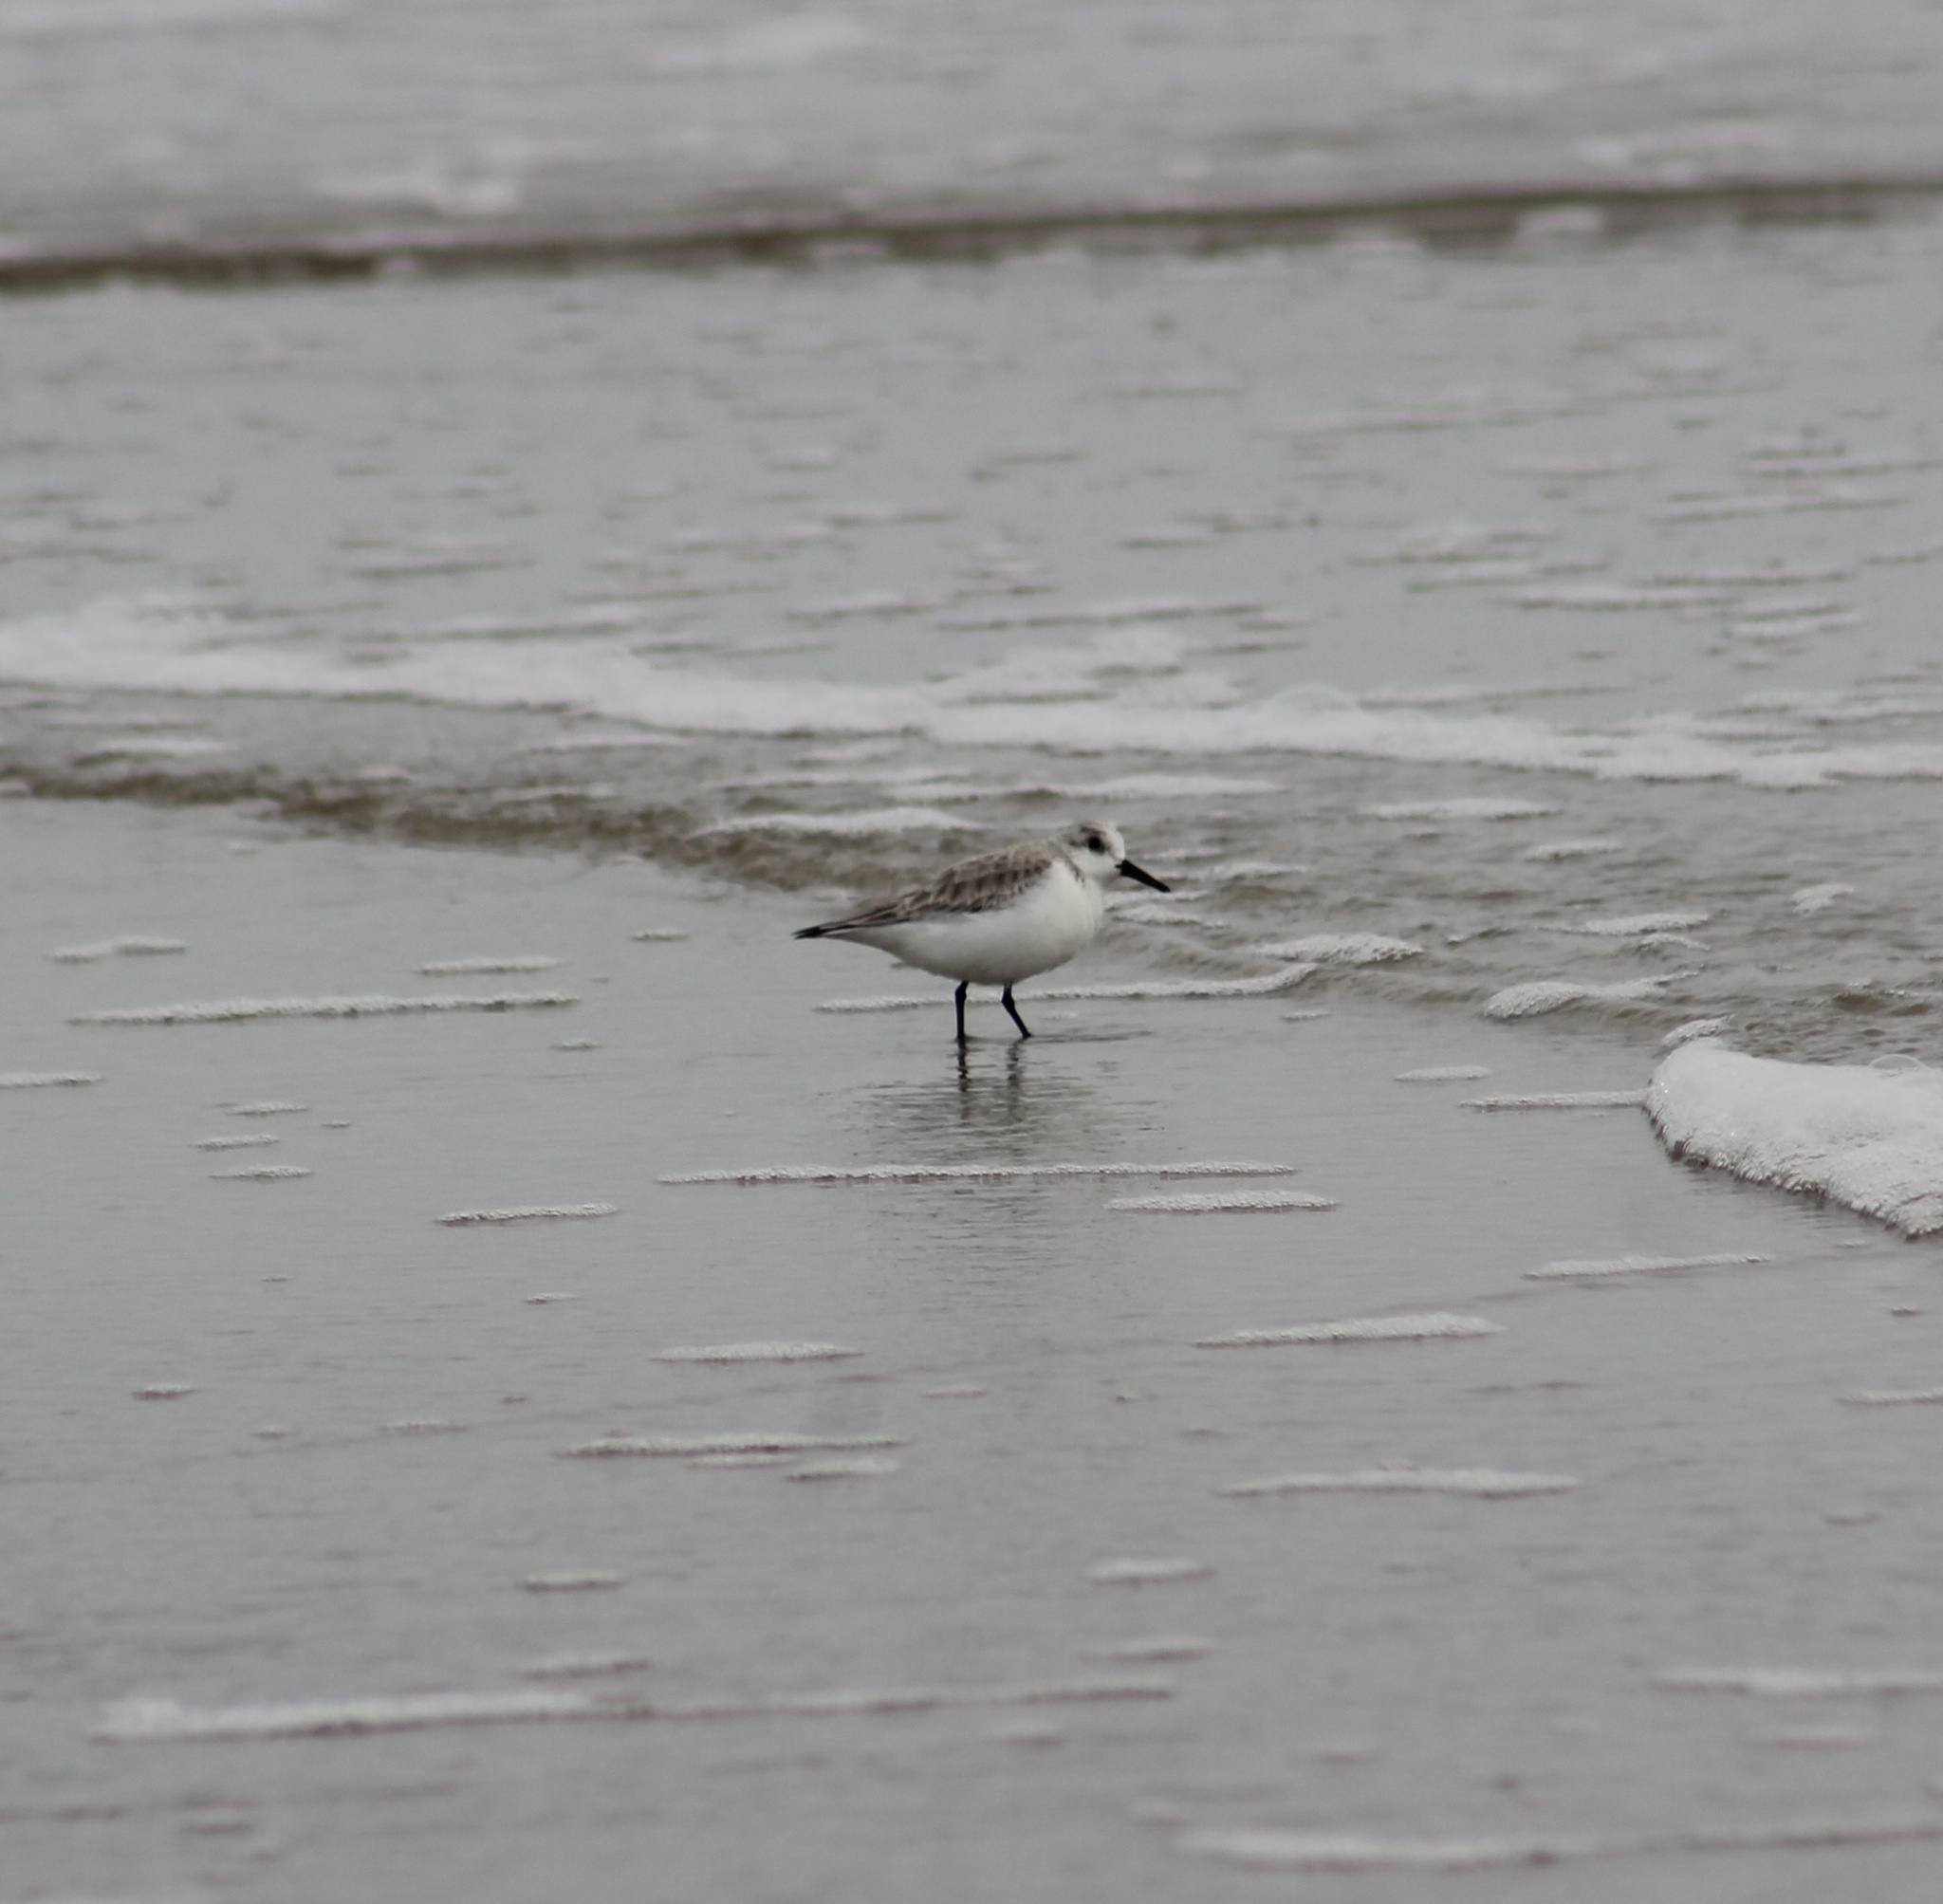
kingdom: Animalia
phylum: Chordata
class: Aves
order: Charadriiformes
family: Scolopacidae
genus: Calidris
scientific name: Calidris alba
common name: Sanderling
